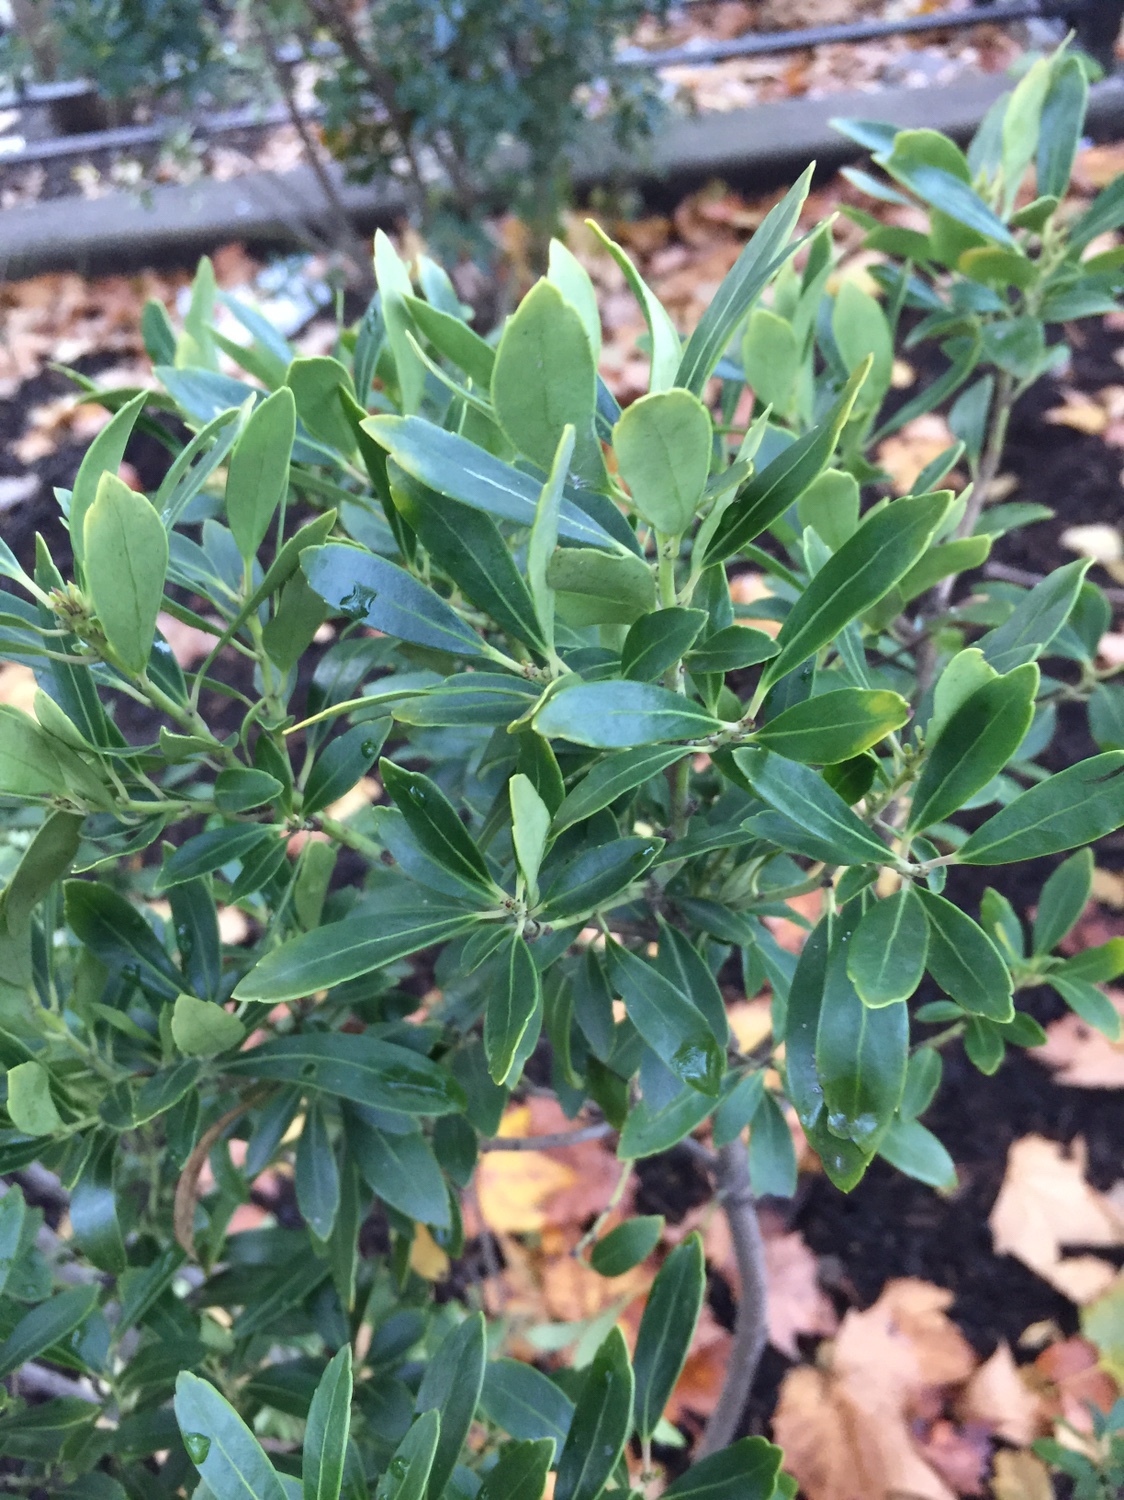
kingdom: Plantae
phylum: Tracheophyta
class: Magnoliopsida
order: Aquifoliales
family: Aquifoliaceae
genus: Ilex
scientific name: Ilex glabra
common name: Bitter gallberry
